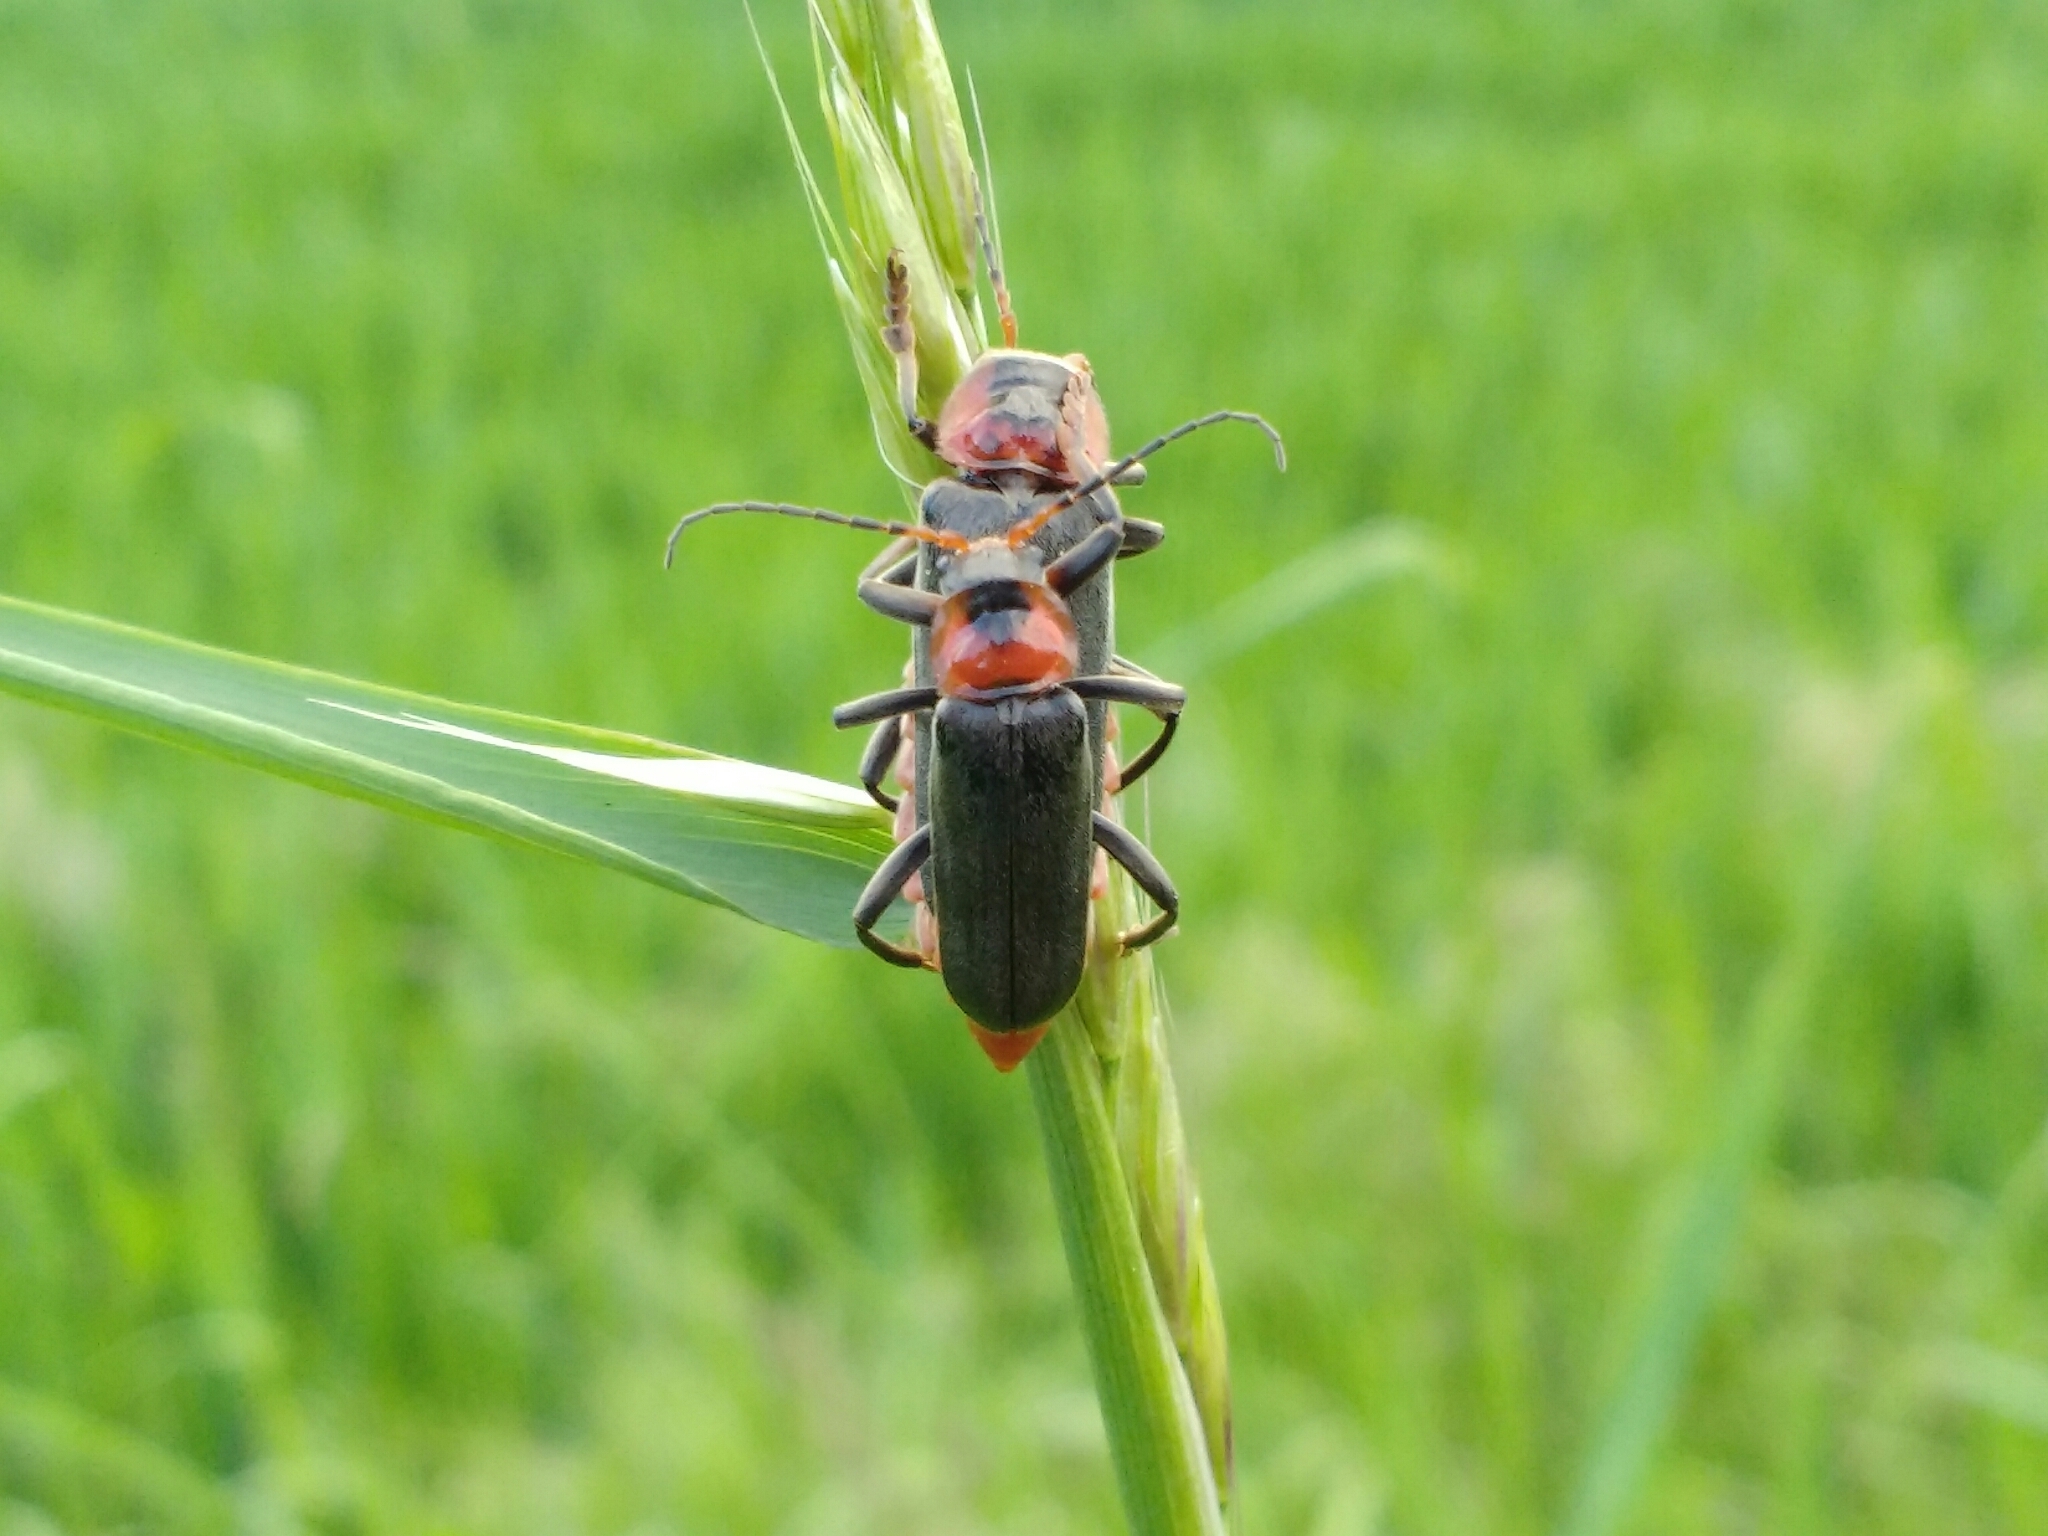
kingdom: Animalia
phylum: Arthropoda
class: Insecta
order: Coleoptera
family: Cantharidae
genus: Cantharis
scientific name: Cantharis fusca
